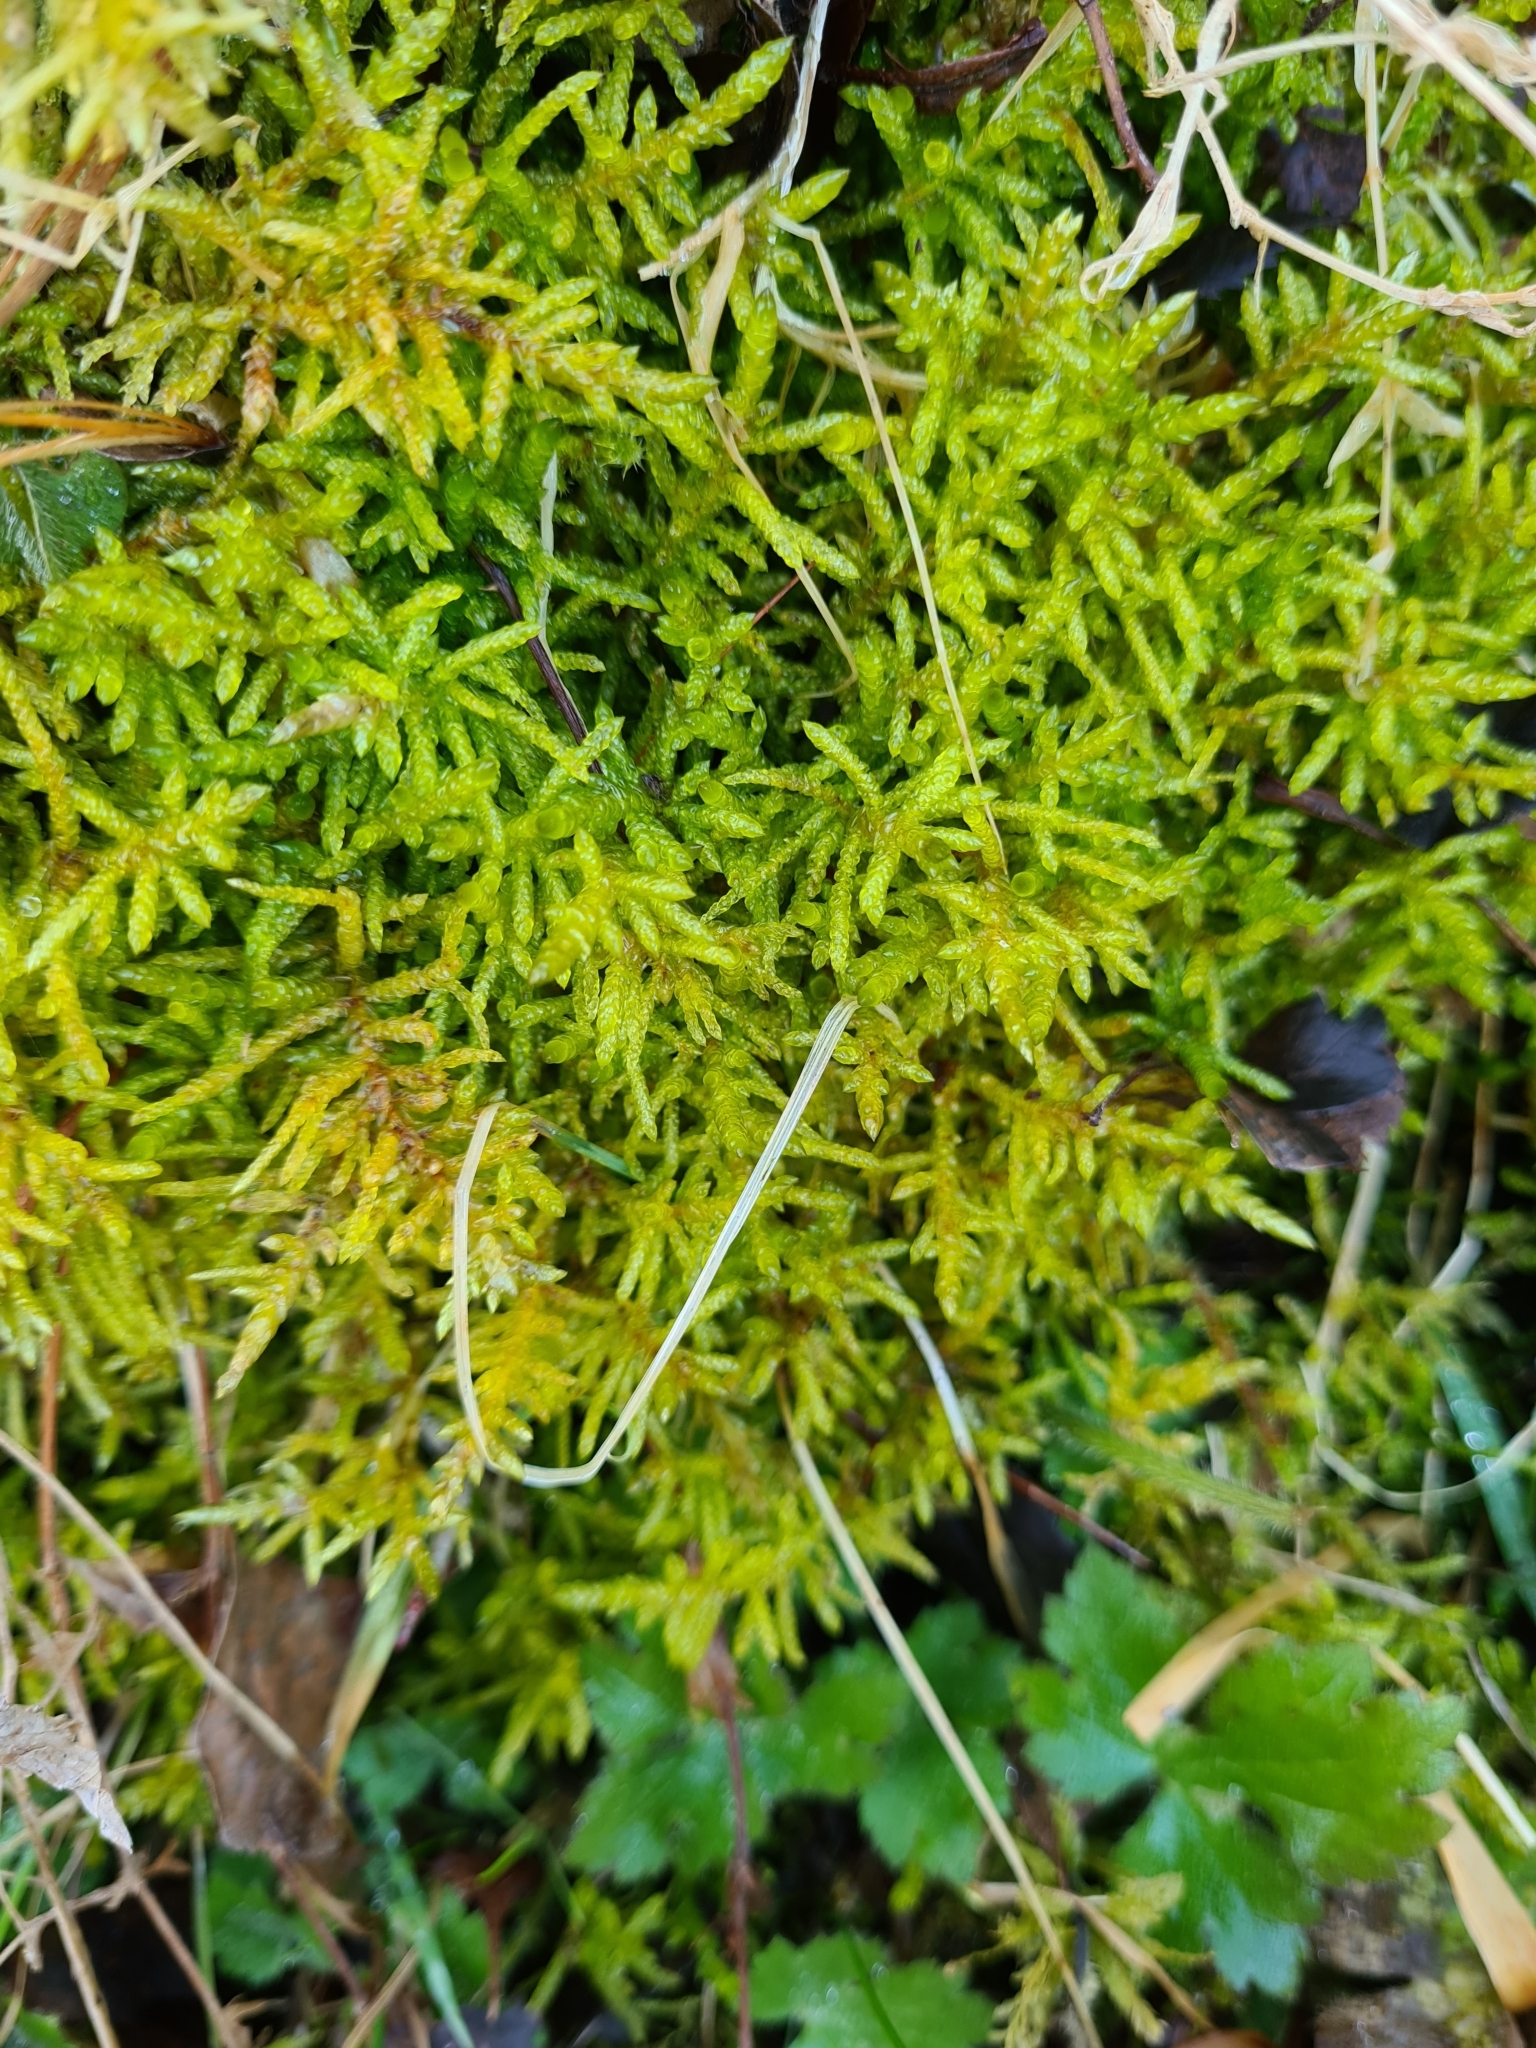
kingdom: Plantae
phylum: Bryophyta
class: Bryopsida
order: Hypnales
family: Brachytheciaceae
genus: Pseudoscleropodium
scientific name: Pseudoscleropodium purum
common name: Neat feather-moss
